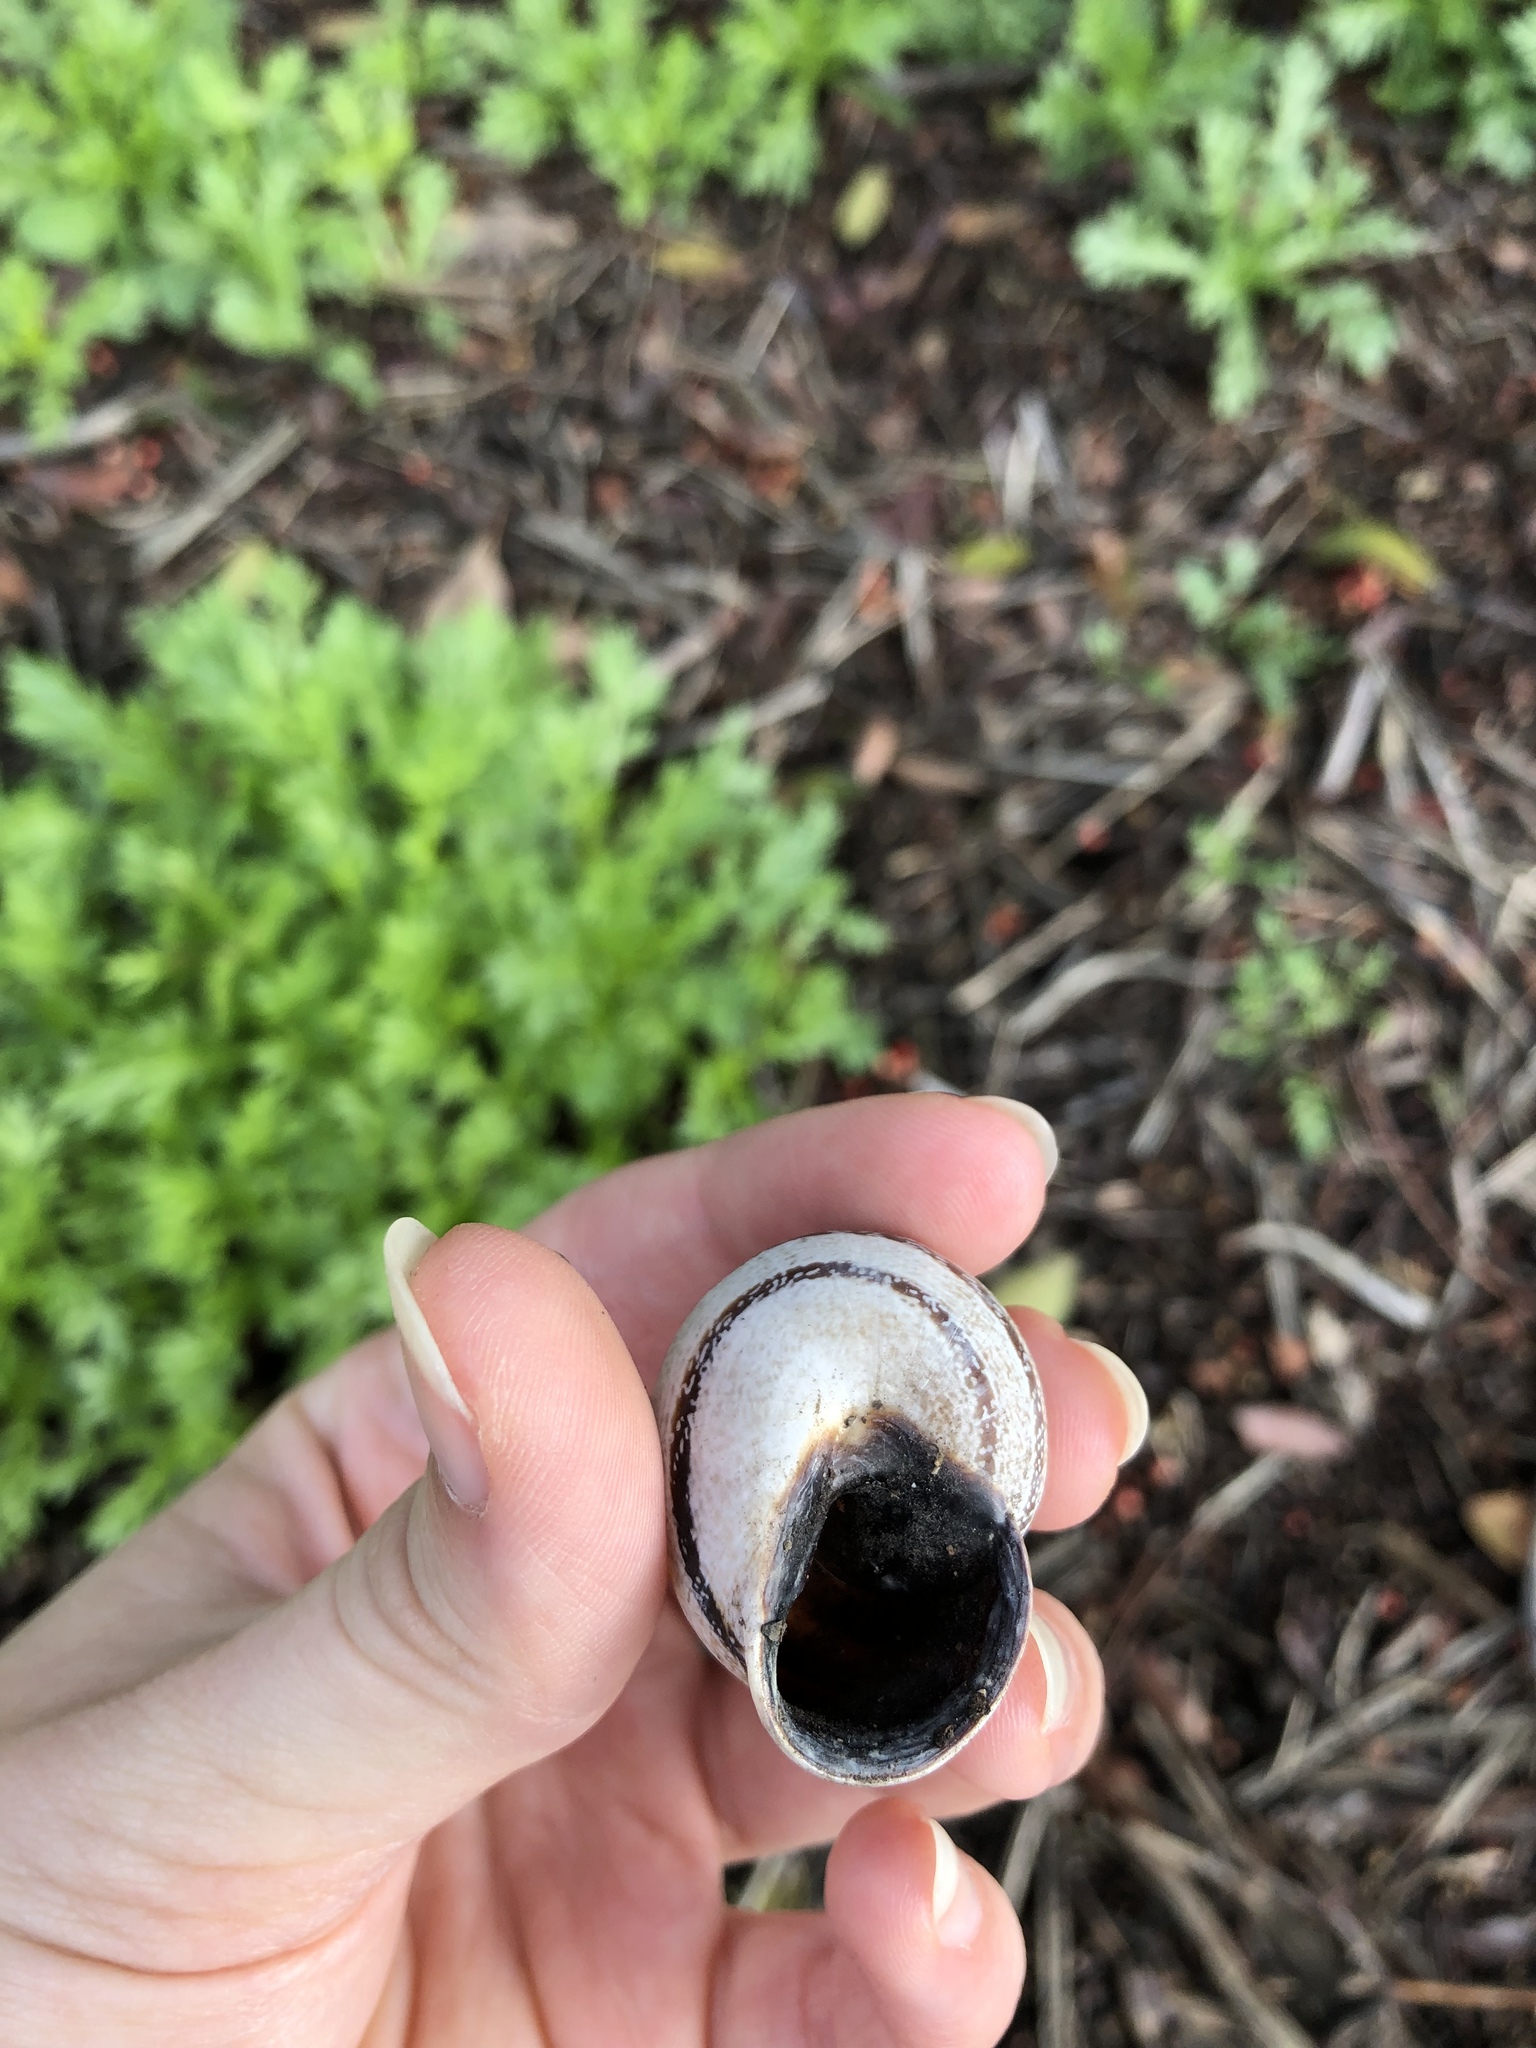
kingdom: Animalia
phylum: Mollusca
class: Gastropoda
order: Stylommatophora
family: Helicidae
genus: Otala
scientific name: Otala lactea
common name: Milk snail
